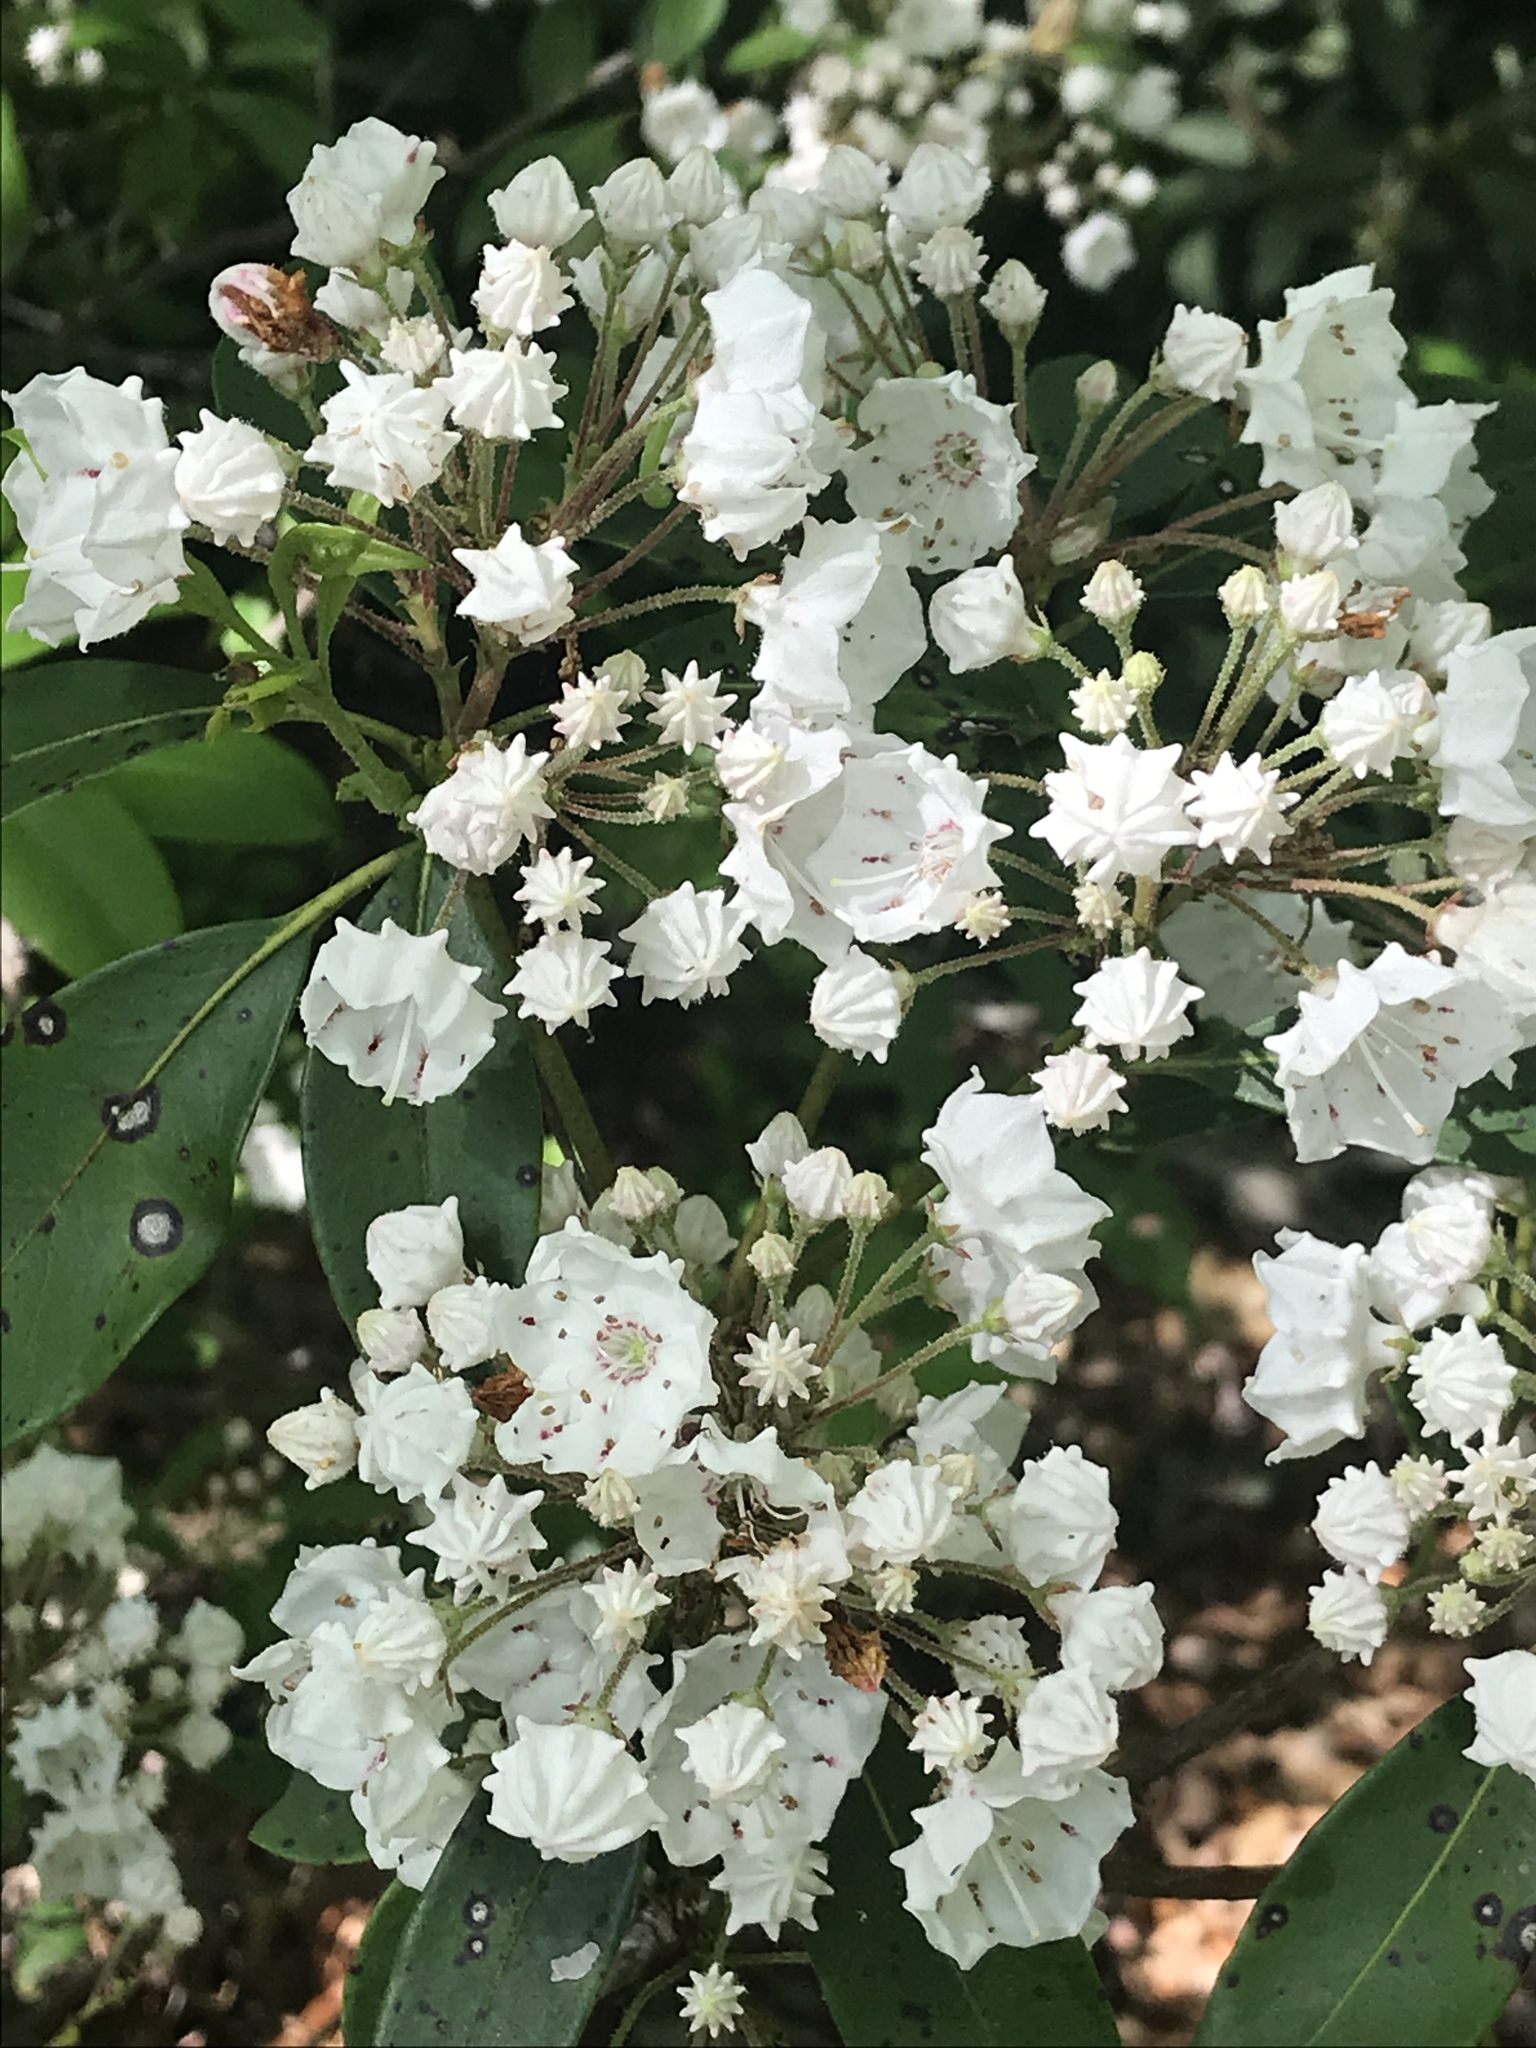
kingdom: Plantae
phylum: Tracheophyta
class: Magnoliopsida
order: Ericales
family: Ericaceae
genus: Kalmia
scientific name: Kalmia latifolia
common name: Mountain-laurel
